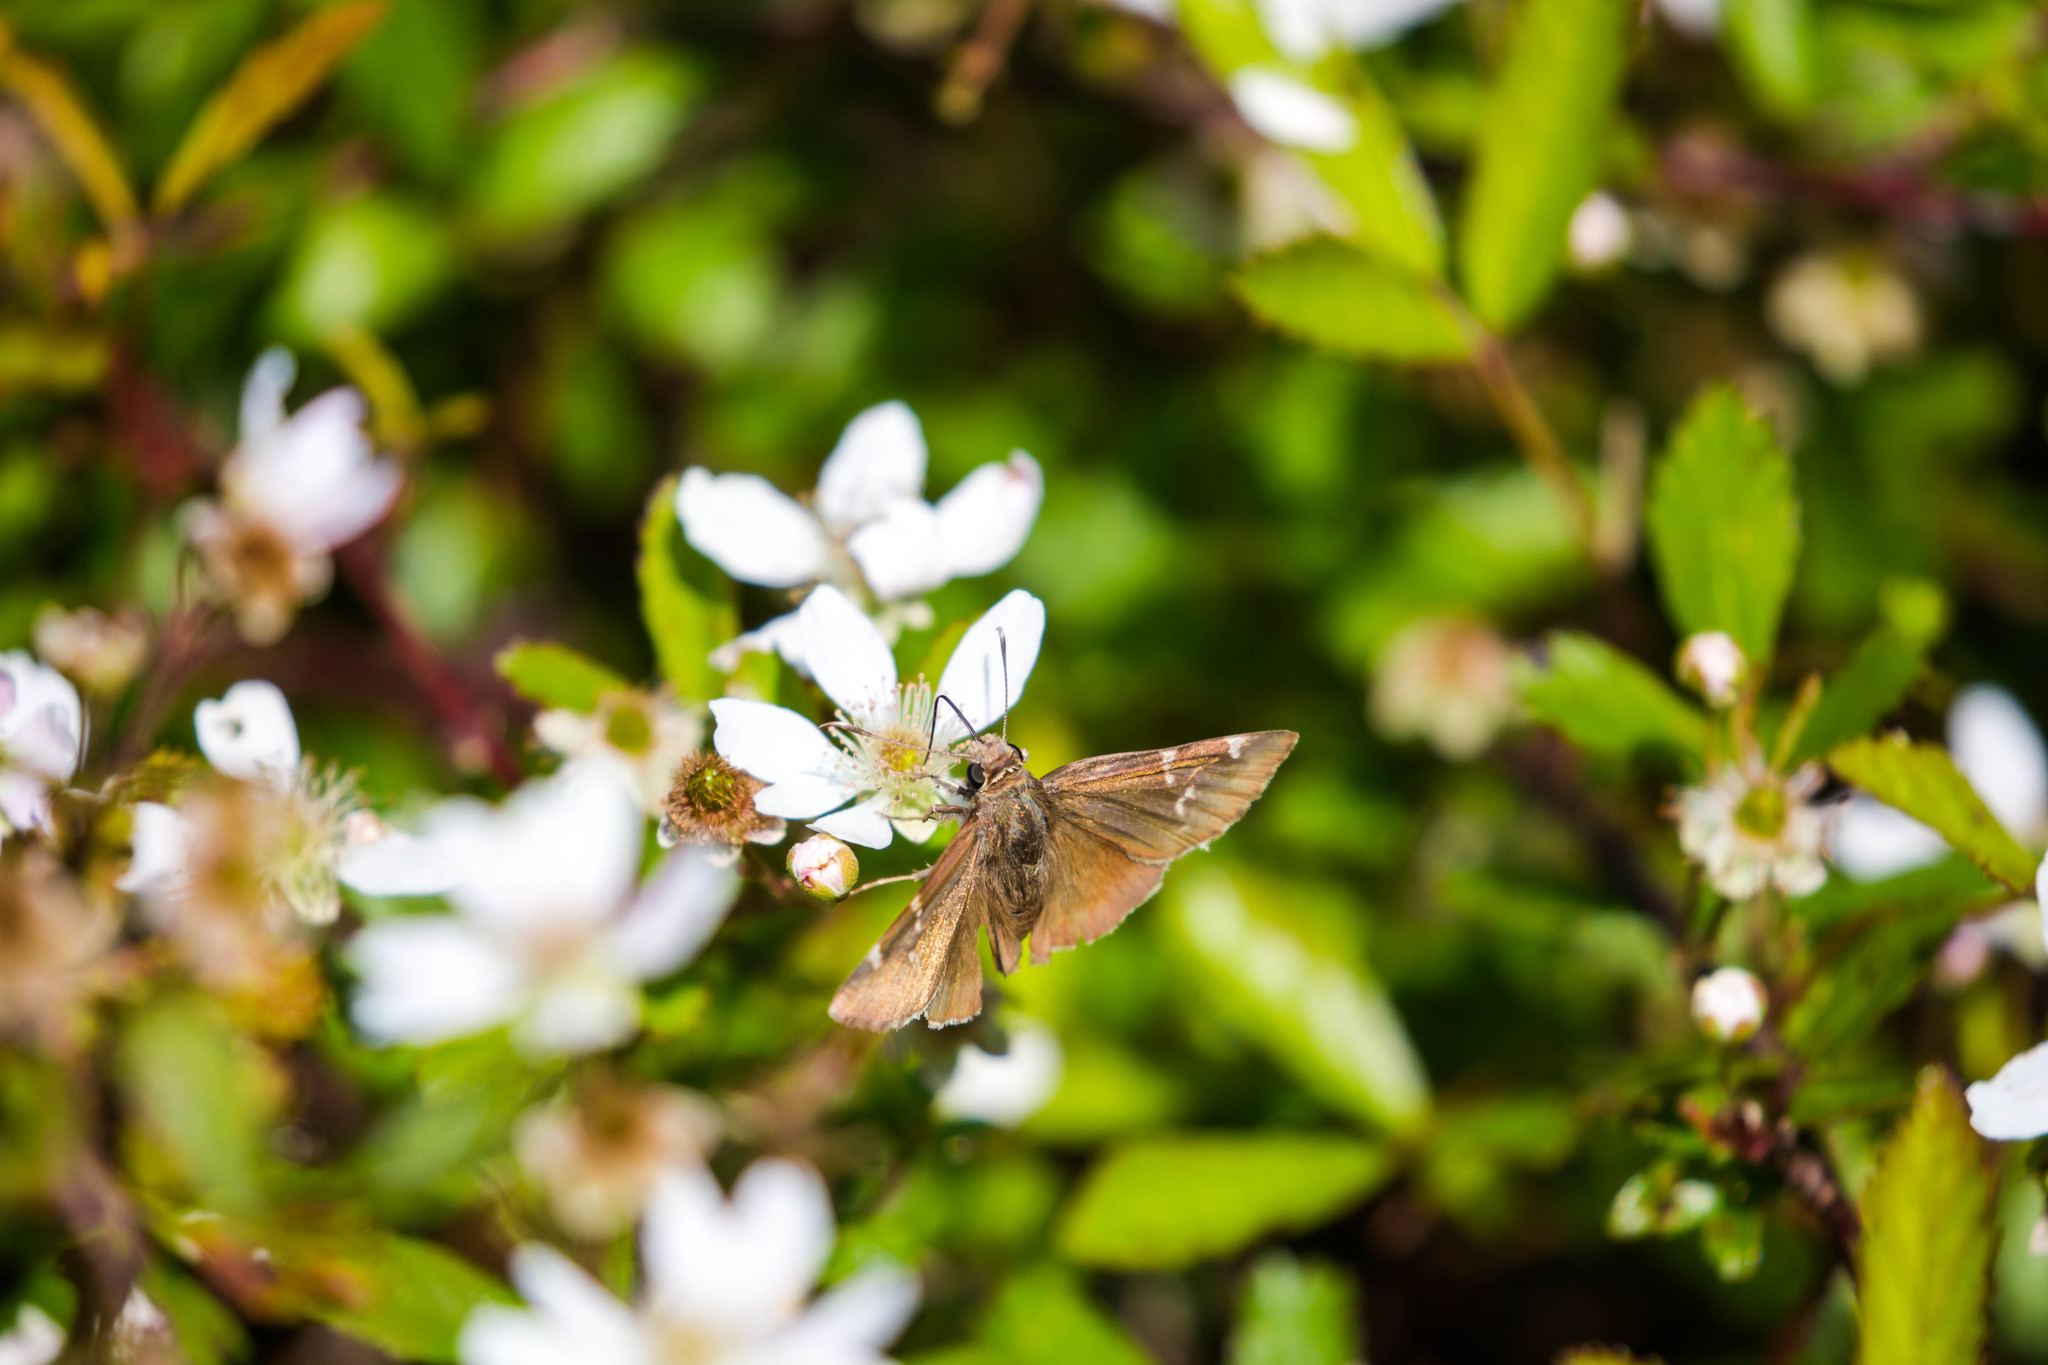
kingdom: Animalia
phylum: Arthropoda
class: Insecta
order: Lepidoptera
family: Hesperiidae
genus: Thorybes
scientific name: Thorybes daunus
